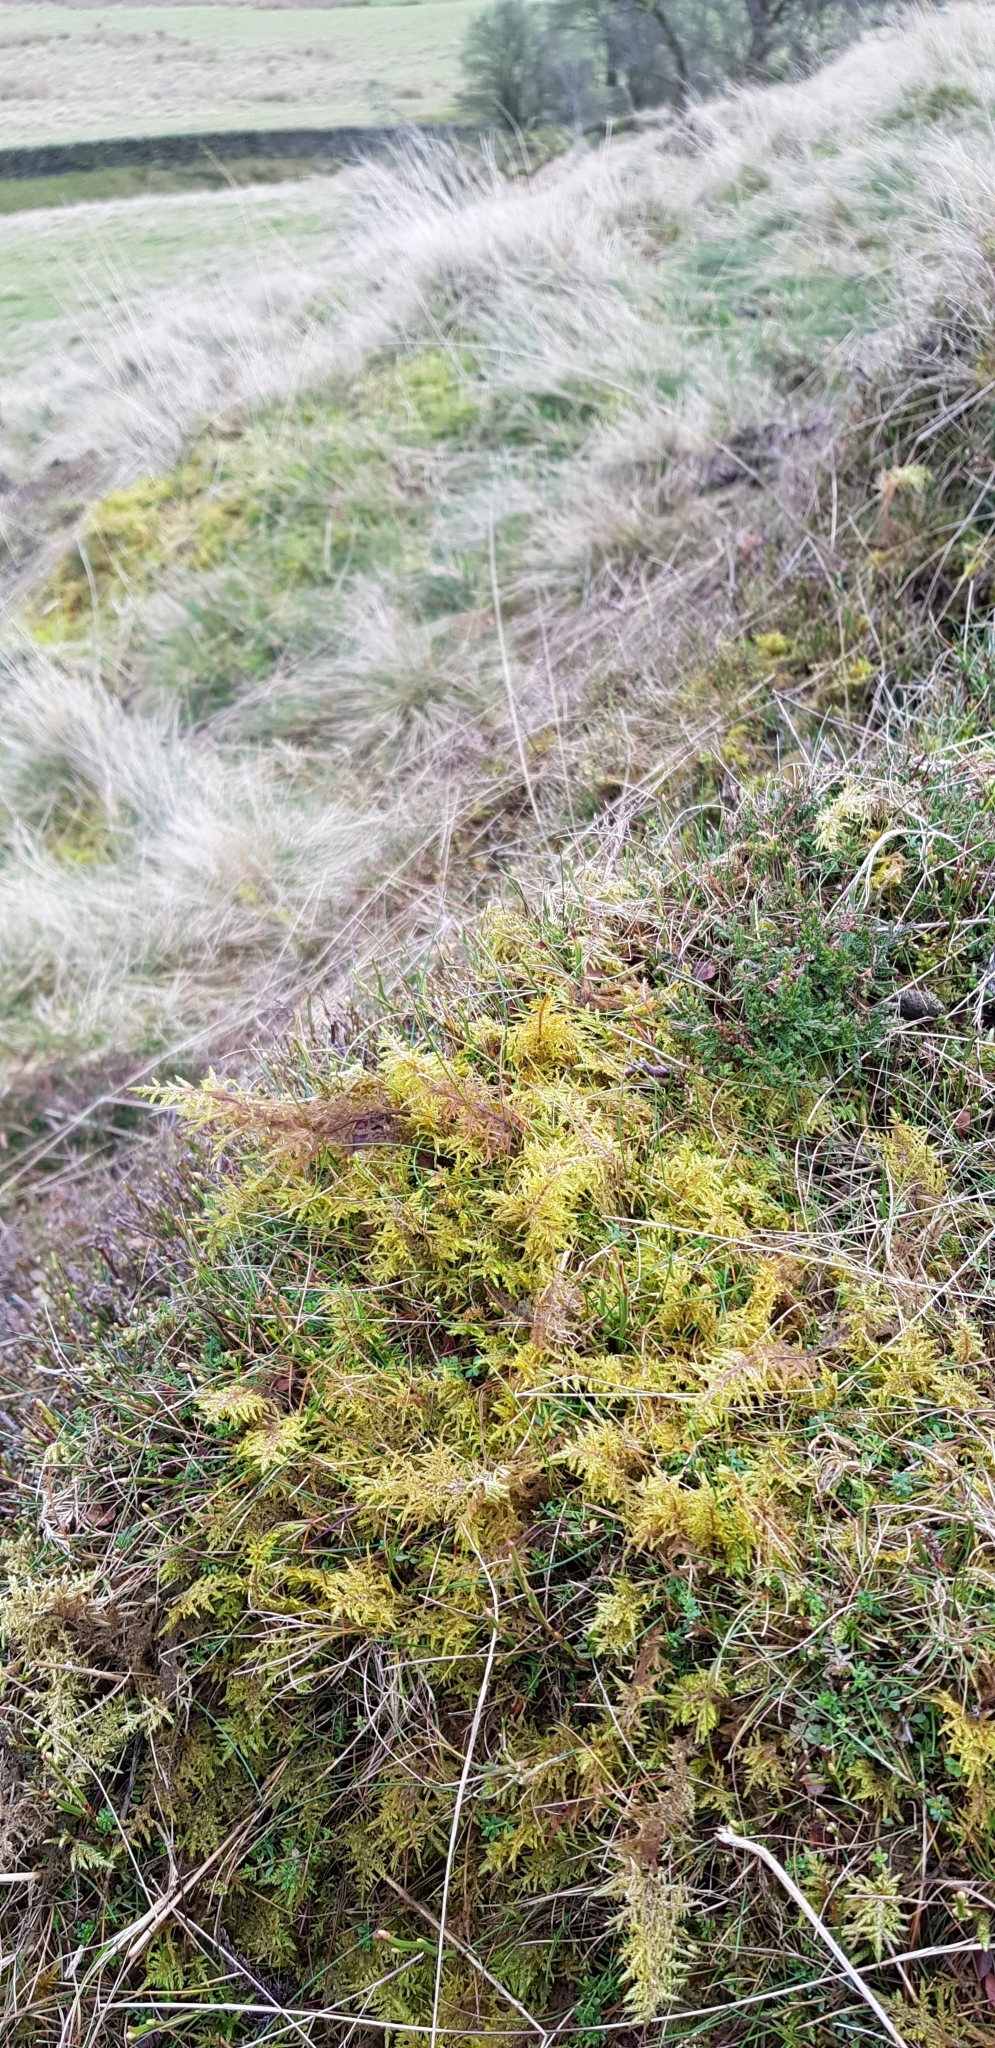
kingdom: Plantae
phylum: Bryophyta
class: Bryopsida
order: Hypnales
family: Hylocomiaceae
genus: Hylocomium
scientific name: Hylocomium splendens
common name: Stairstep moss
